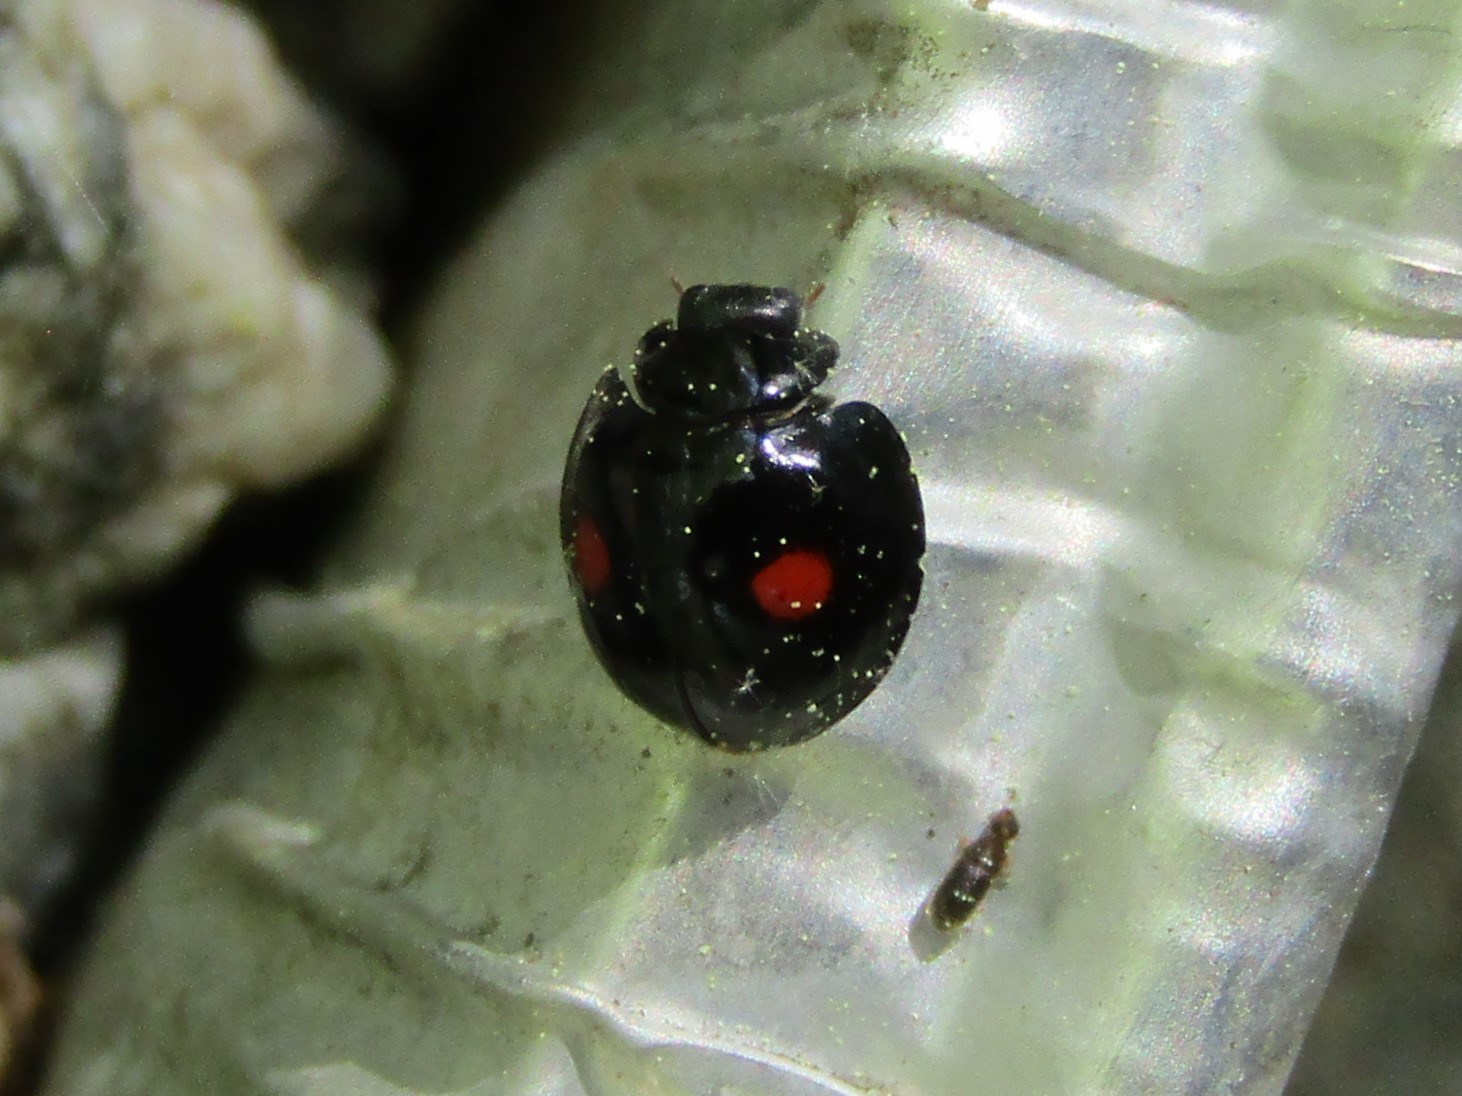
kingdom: Animalia
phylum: Arthropoda
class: Insecta
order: Coleoptera
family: Coccinellidae
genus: Chilocorus
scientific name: Chilocorus stigma
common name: Twicestabbed lady beetle
